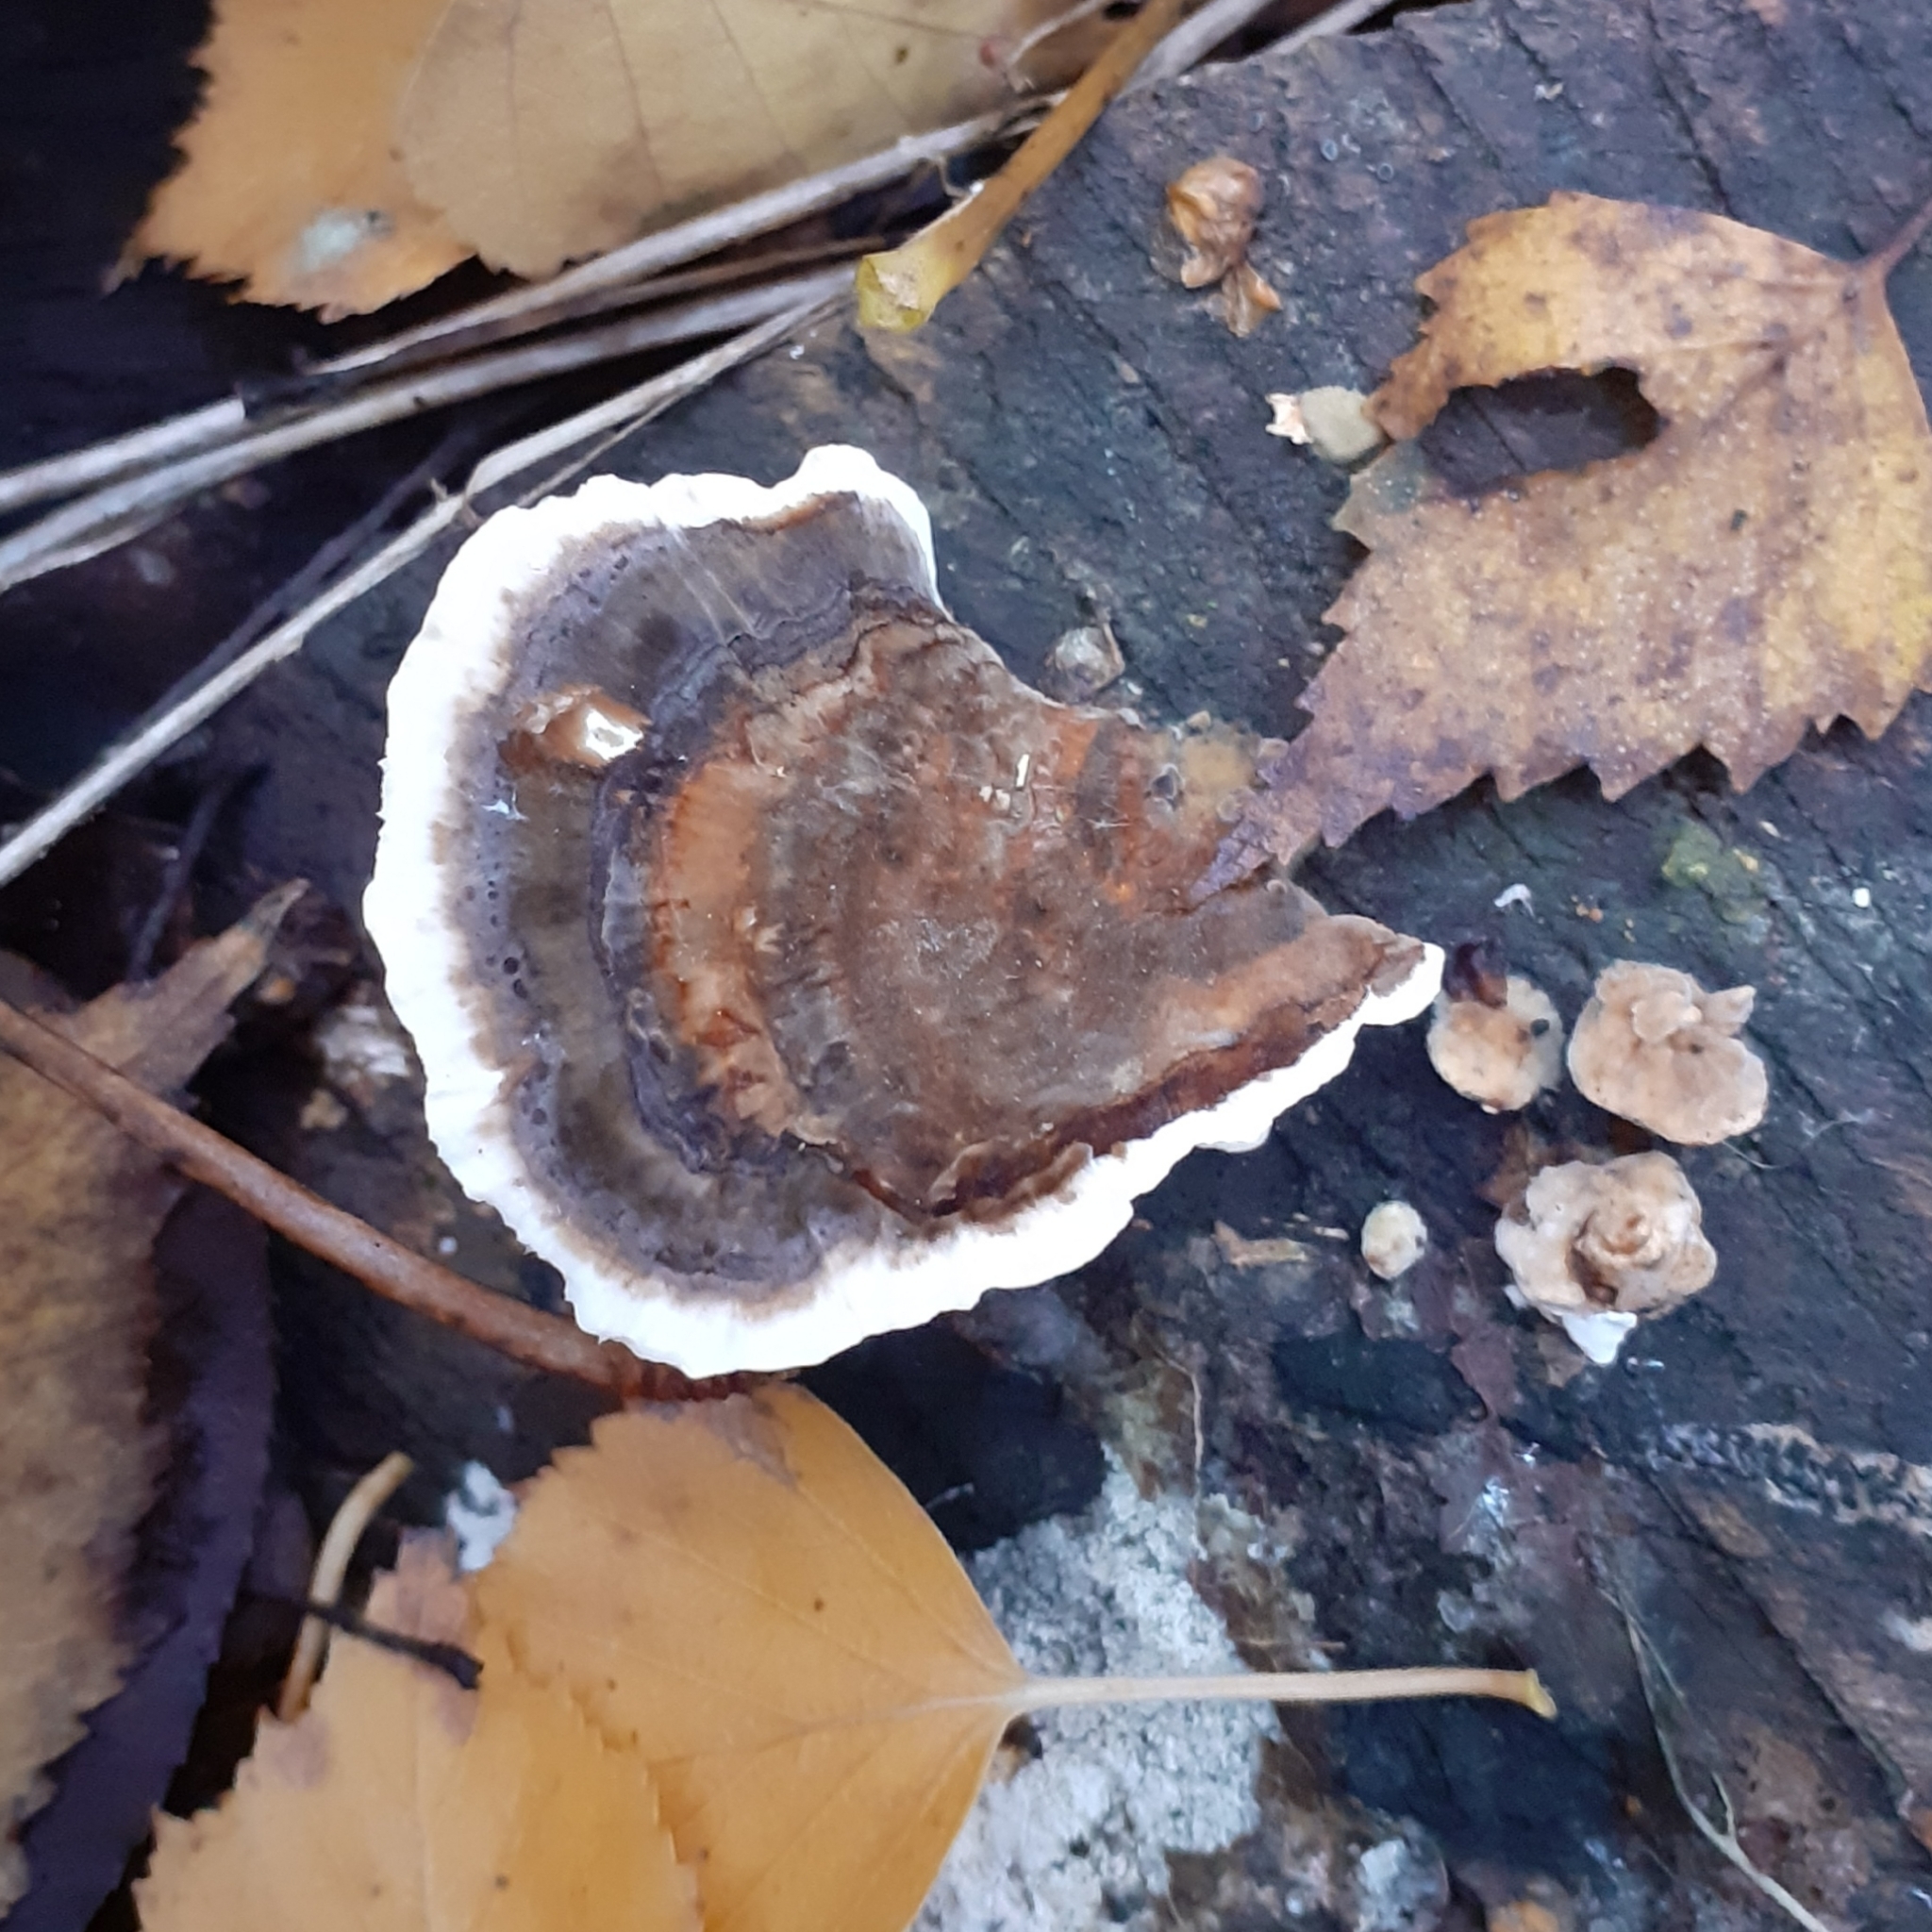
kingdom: Fungi
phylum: Basidiomycota
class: Agaricomycetes
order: Polyporales
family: Polyporaceae
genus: Trametes
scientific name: Trametes versicolor
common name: Turkeytail
